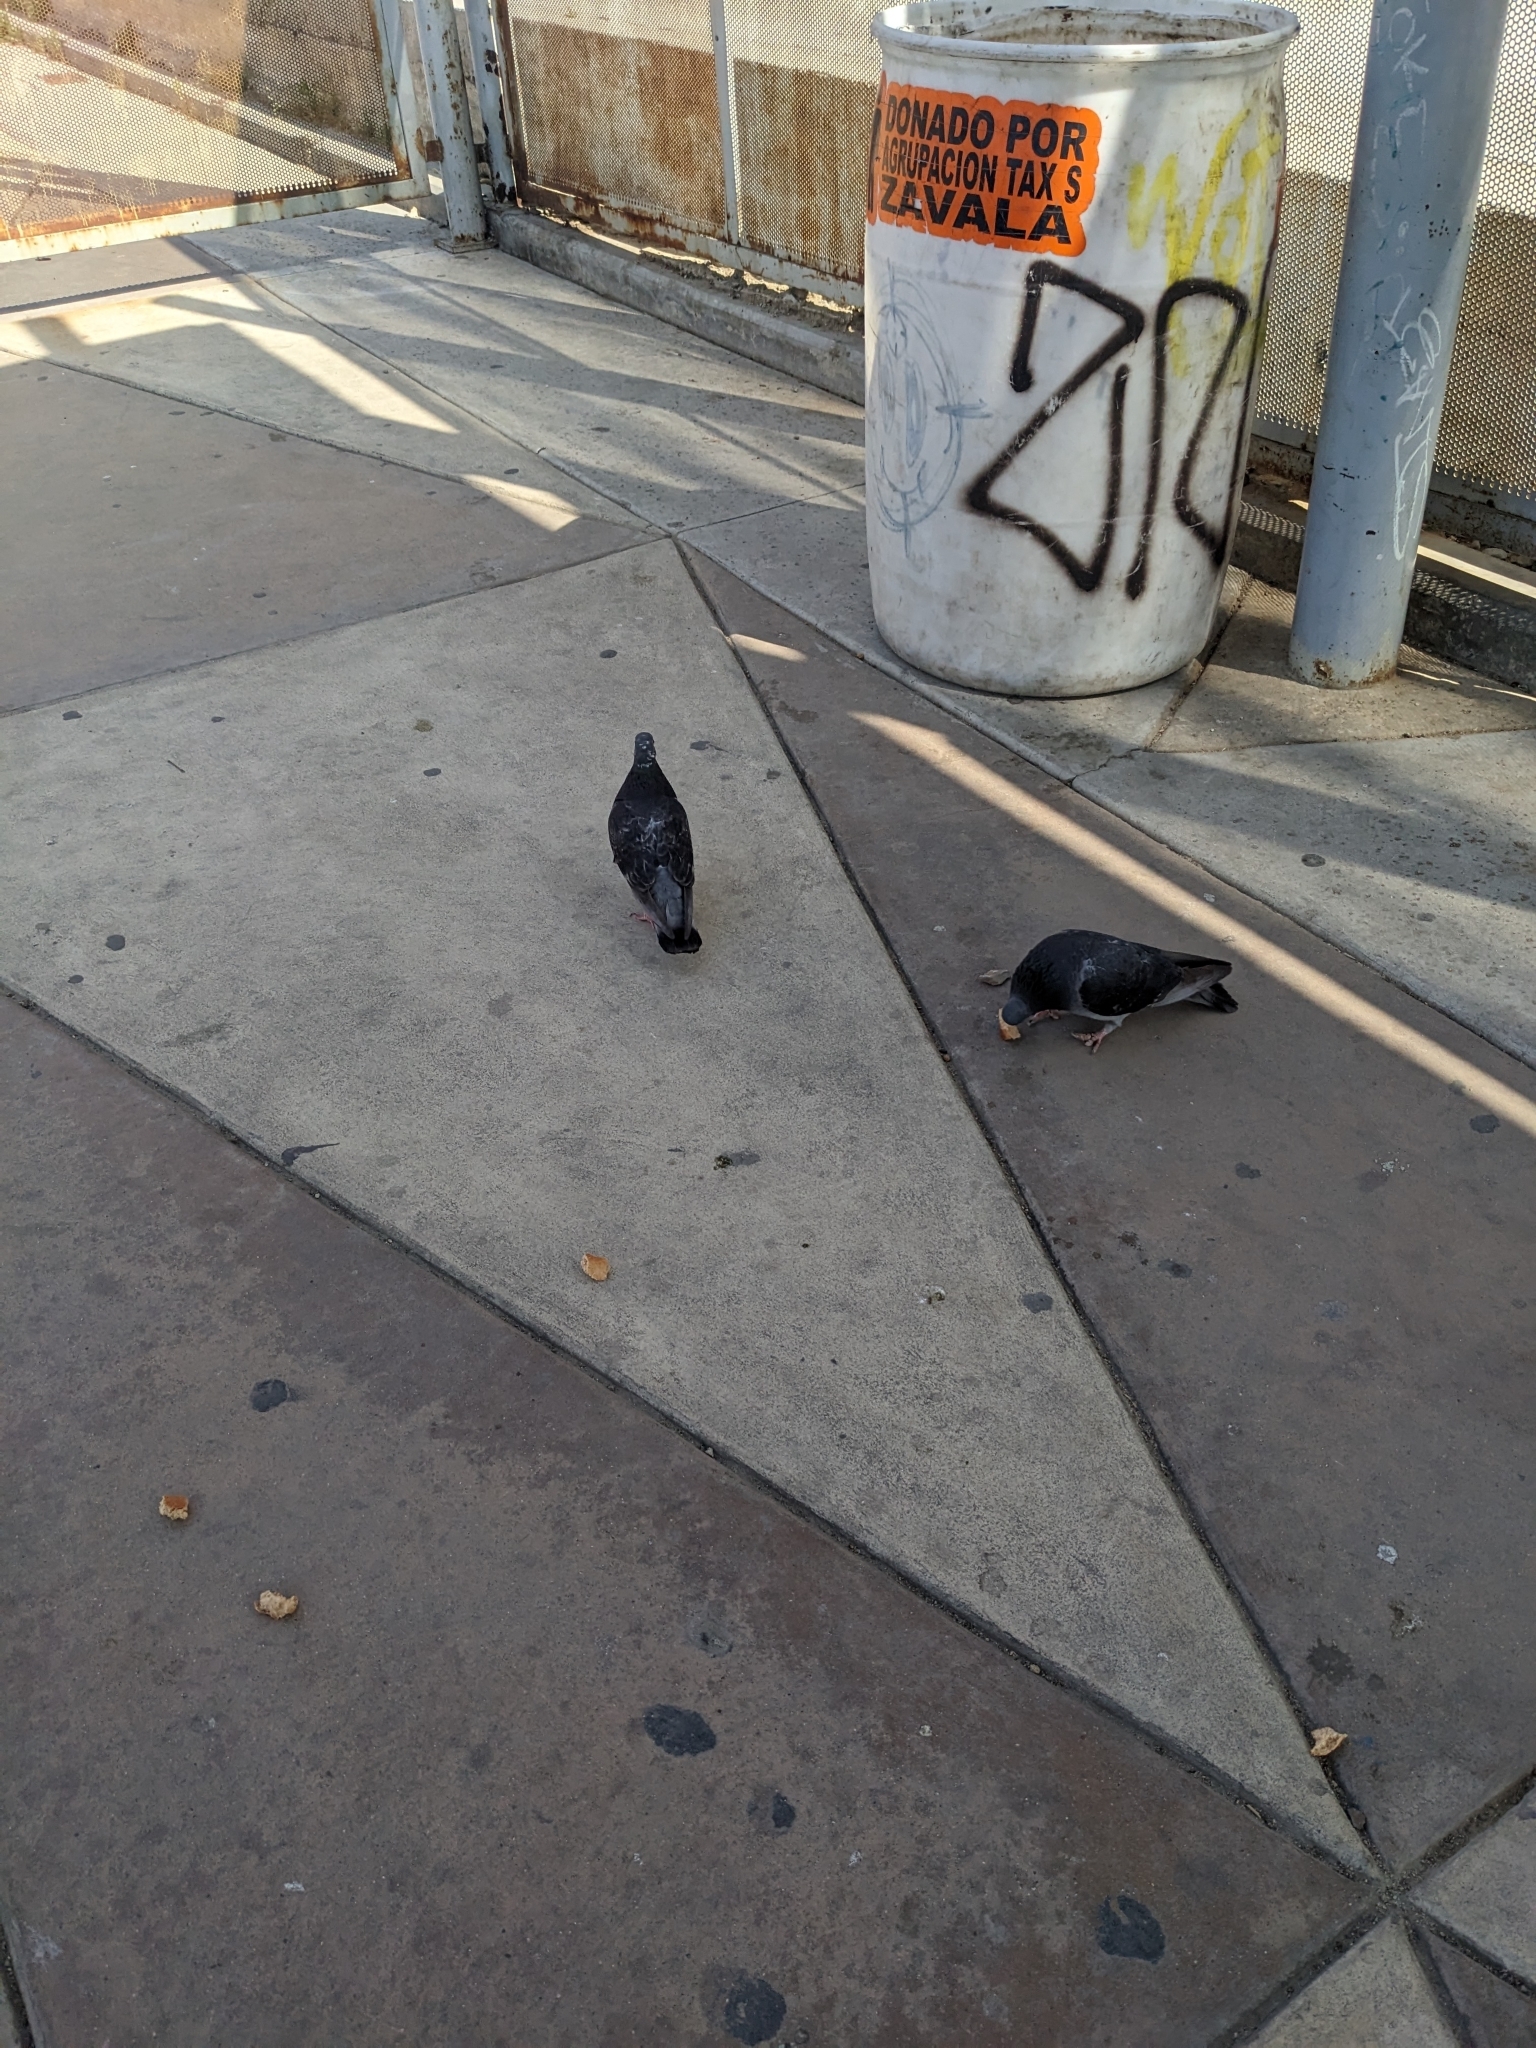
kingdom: Animalia
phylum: Chordata
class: Aves
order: Columbiformes
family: Columbidae
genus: Columba
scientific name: Columba livia
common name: Rock pigeon
